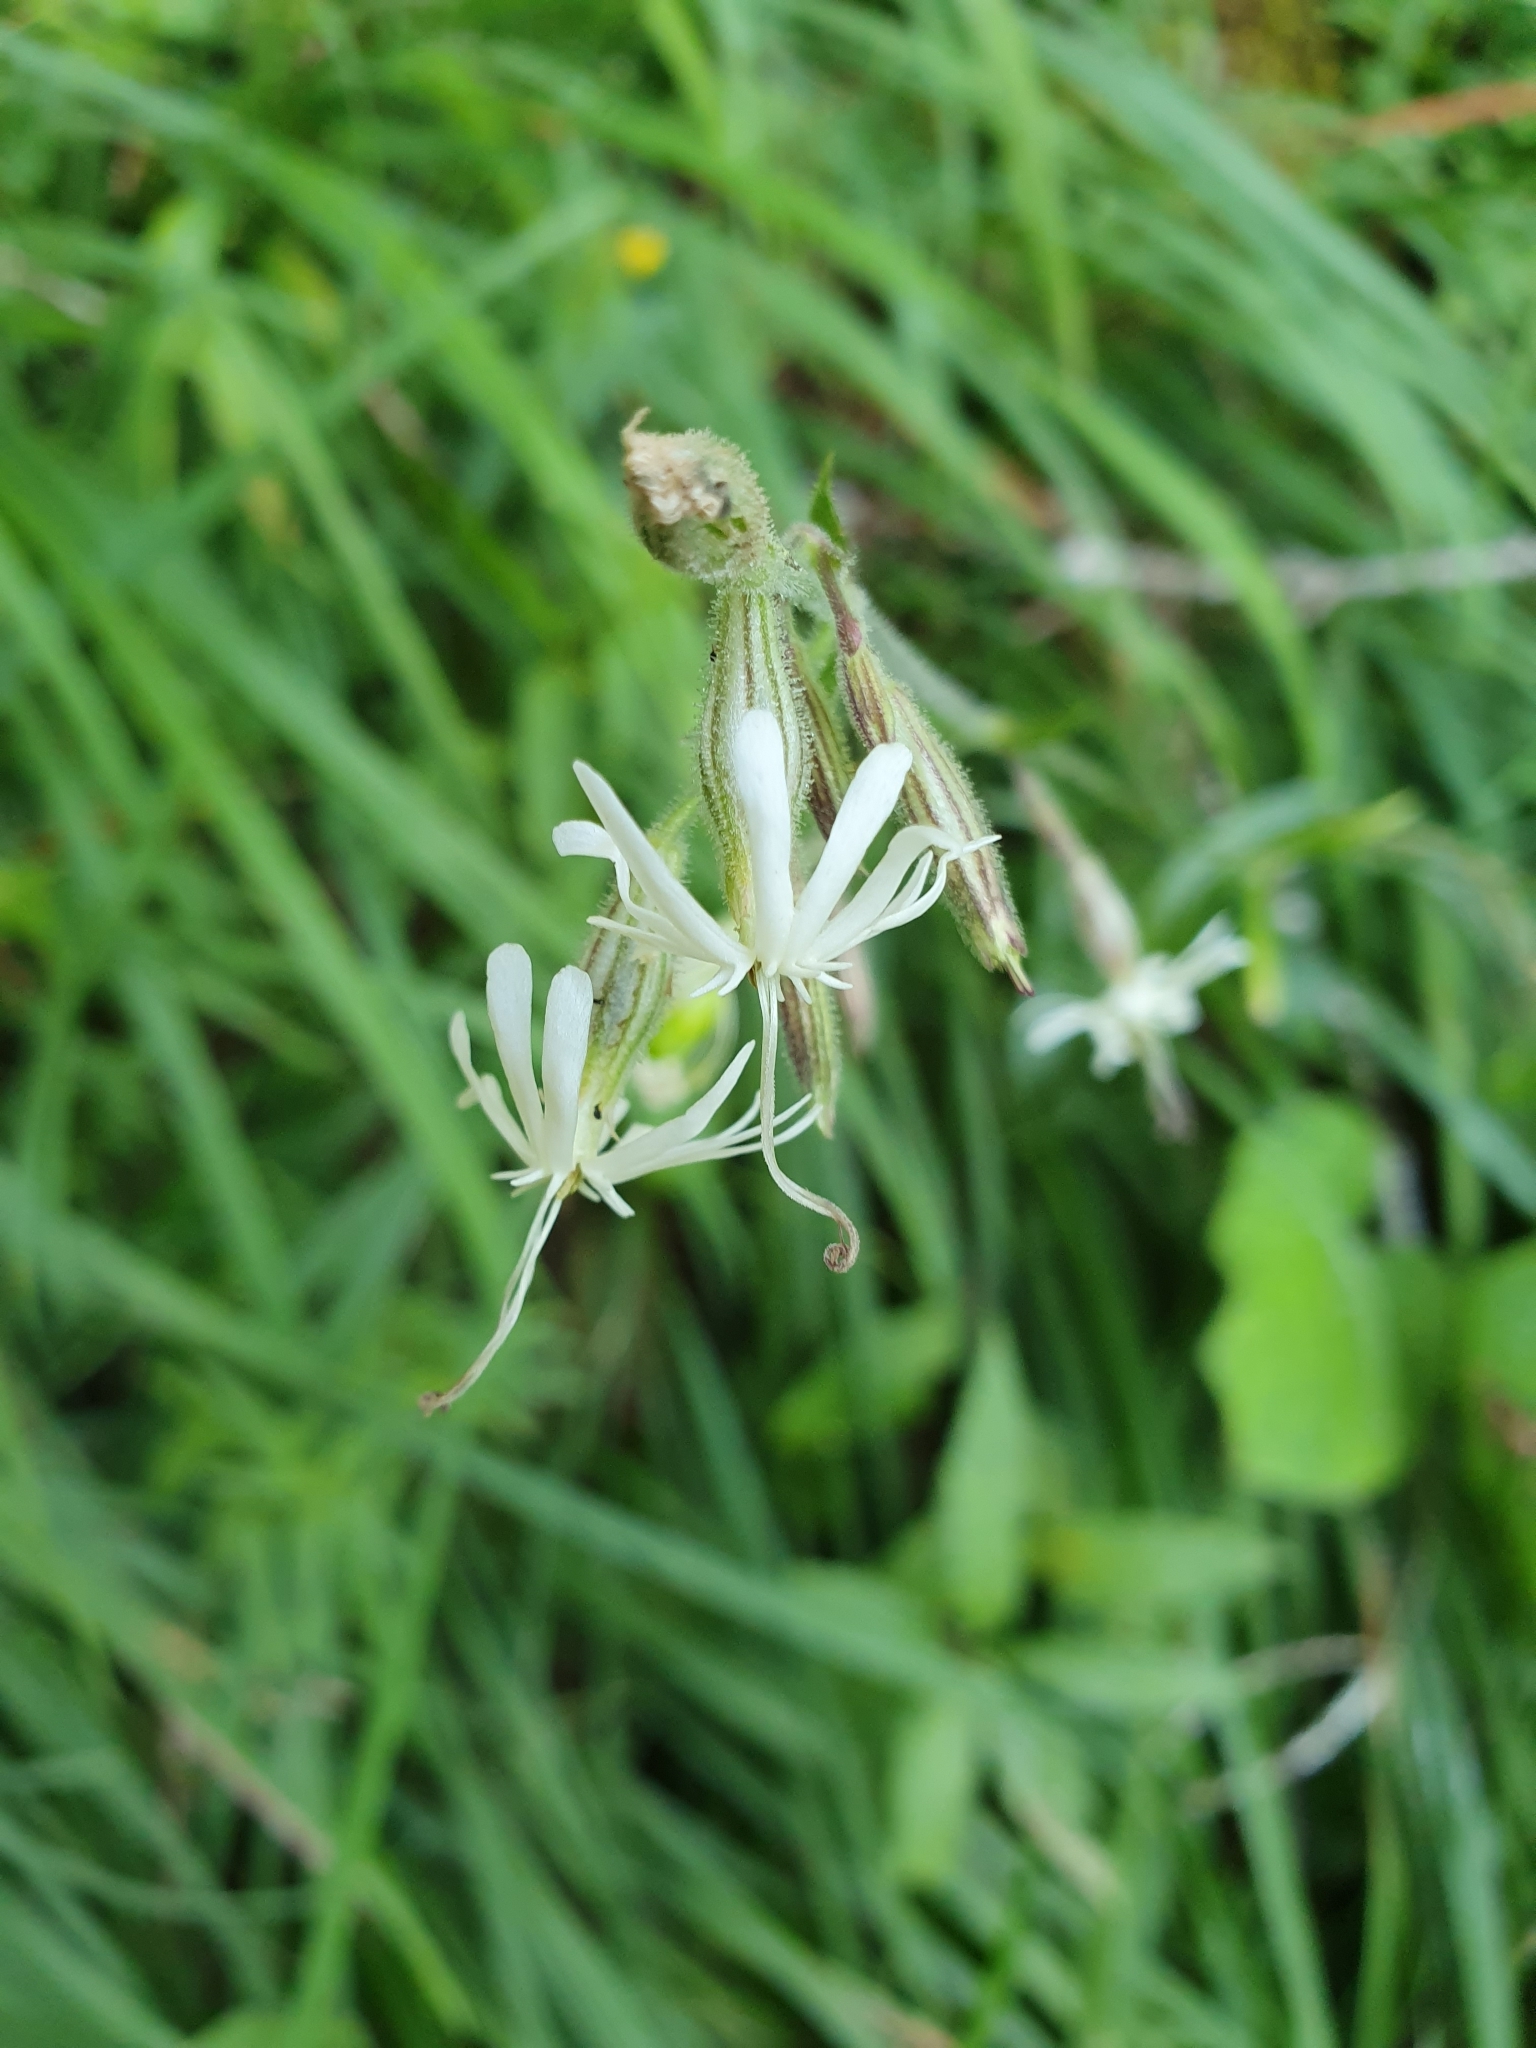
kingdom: Plantae
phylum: Tracheophyta
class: Magnoliopsida
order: Caryophyllales
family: Caryophyllaceae
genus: Silene
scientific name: Silene nutans
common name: Nottingham catchfly
